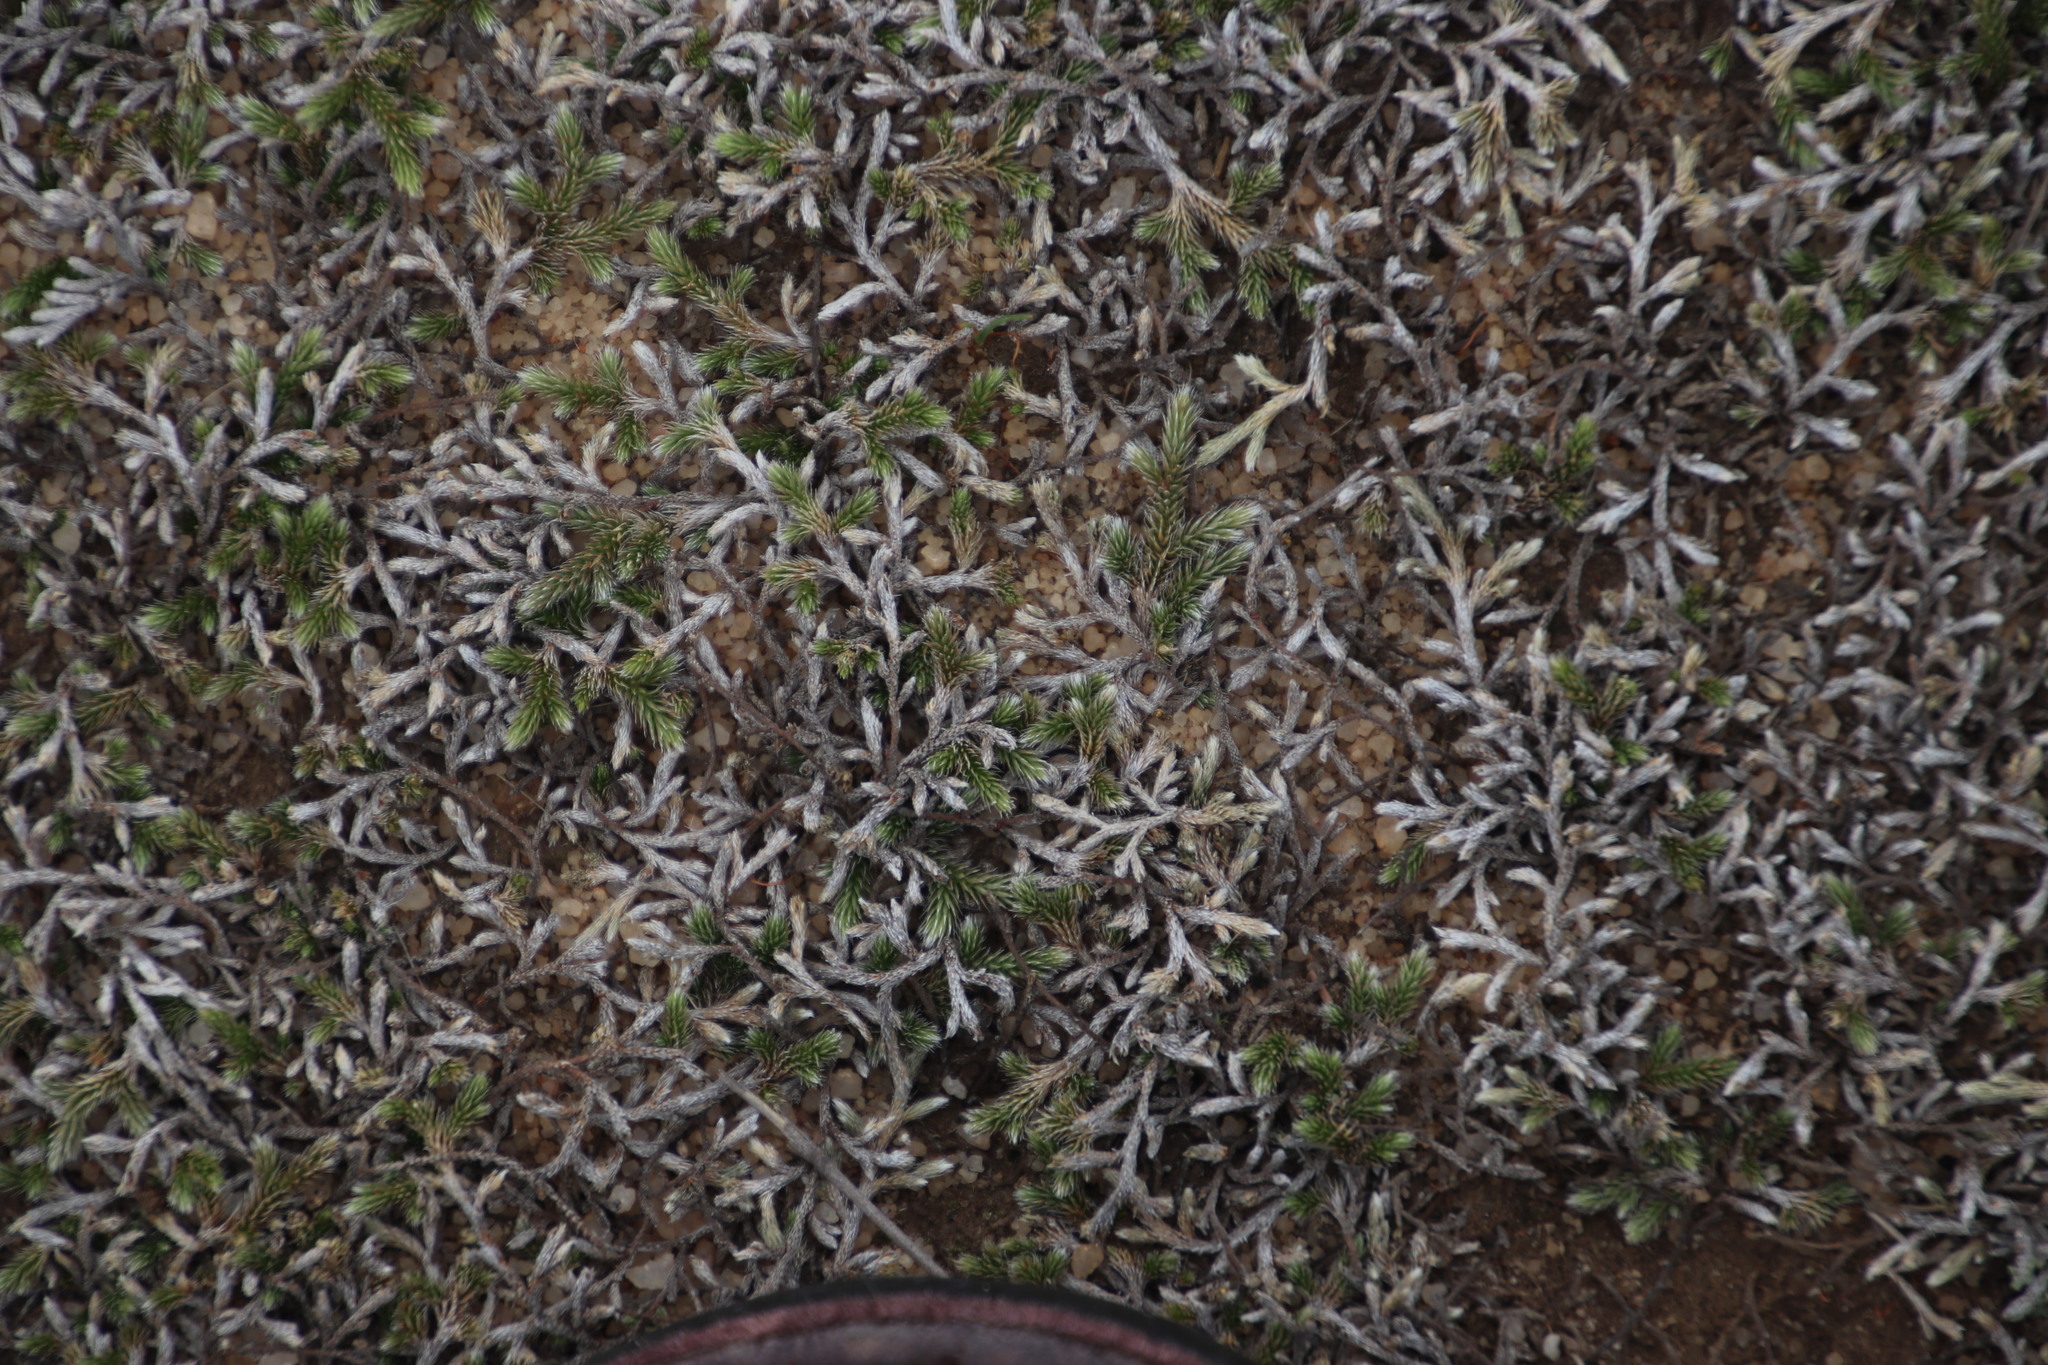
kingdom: Plantae
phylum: Tracheophyta
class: Lycopodiopsida
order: Selaginellales
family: Selaginellaceae
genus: Selaginella
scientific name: Selaginella dregei
